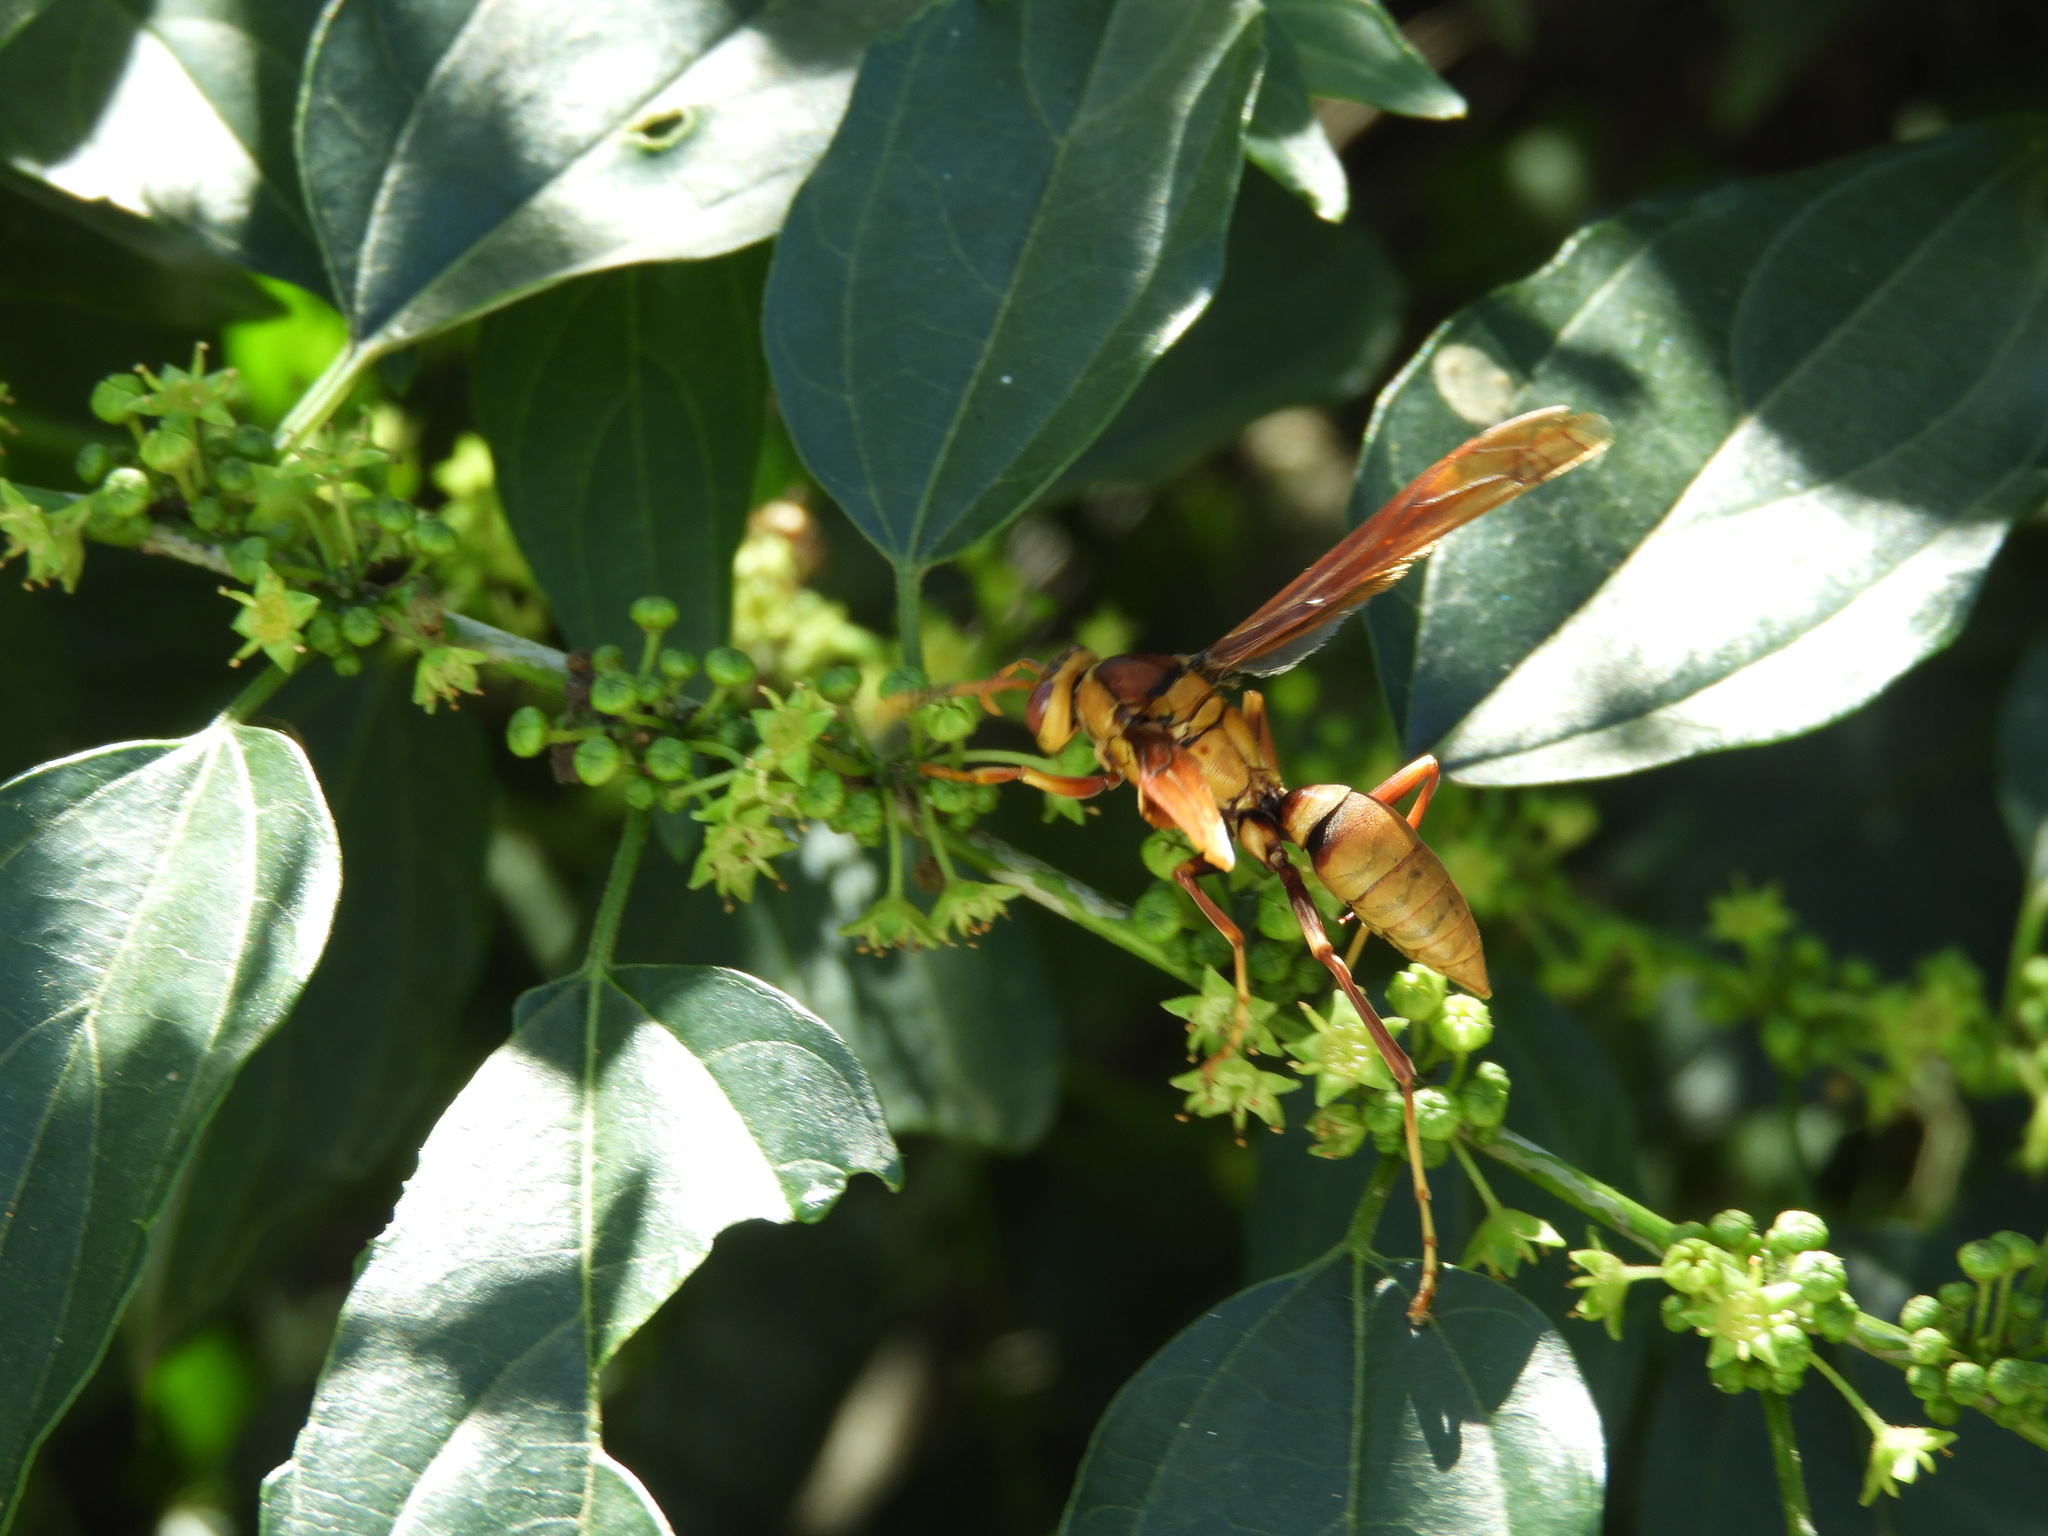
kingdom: Animalia
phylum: Arthropoda
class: Insecta
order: Hymenoptera
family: Eumenidae
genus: Polistes
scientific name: Polistes major
